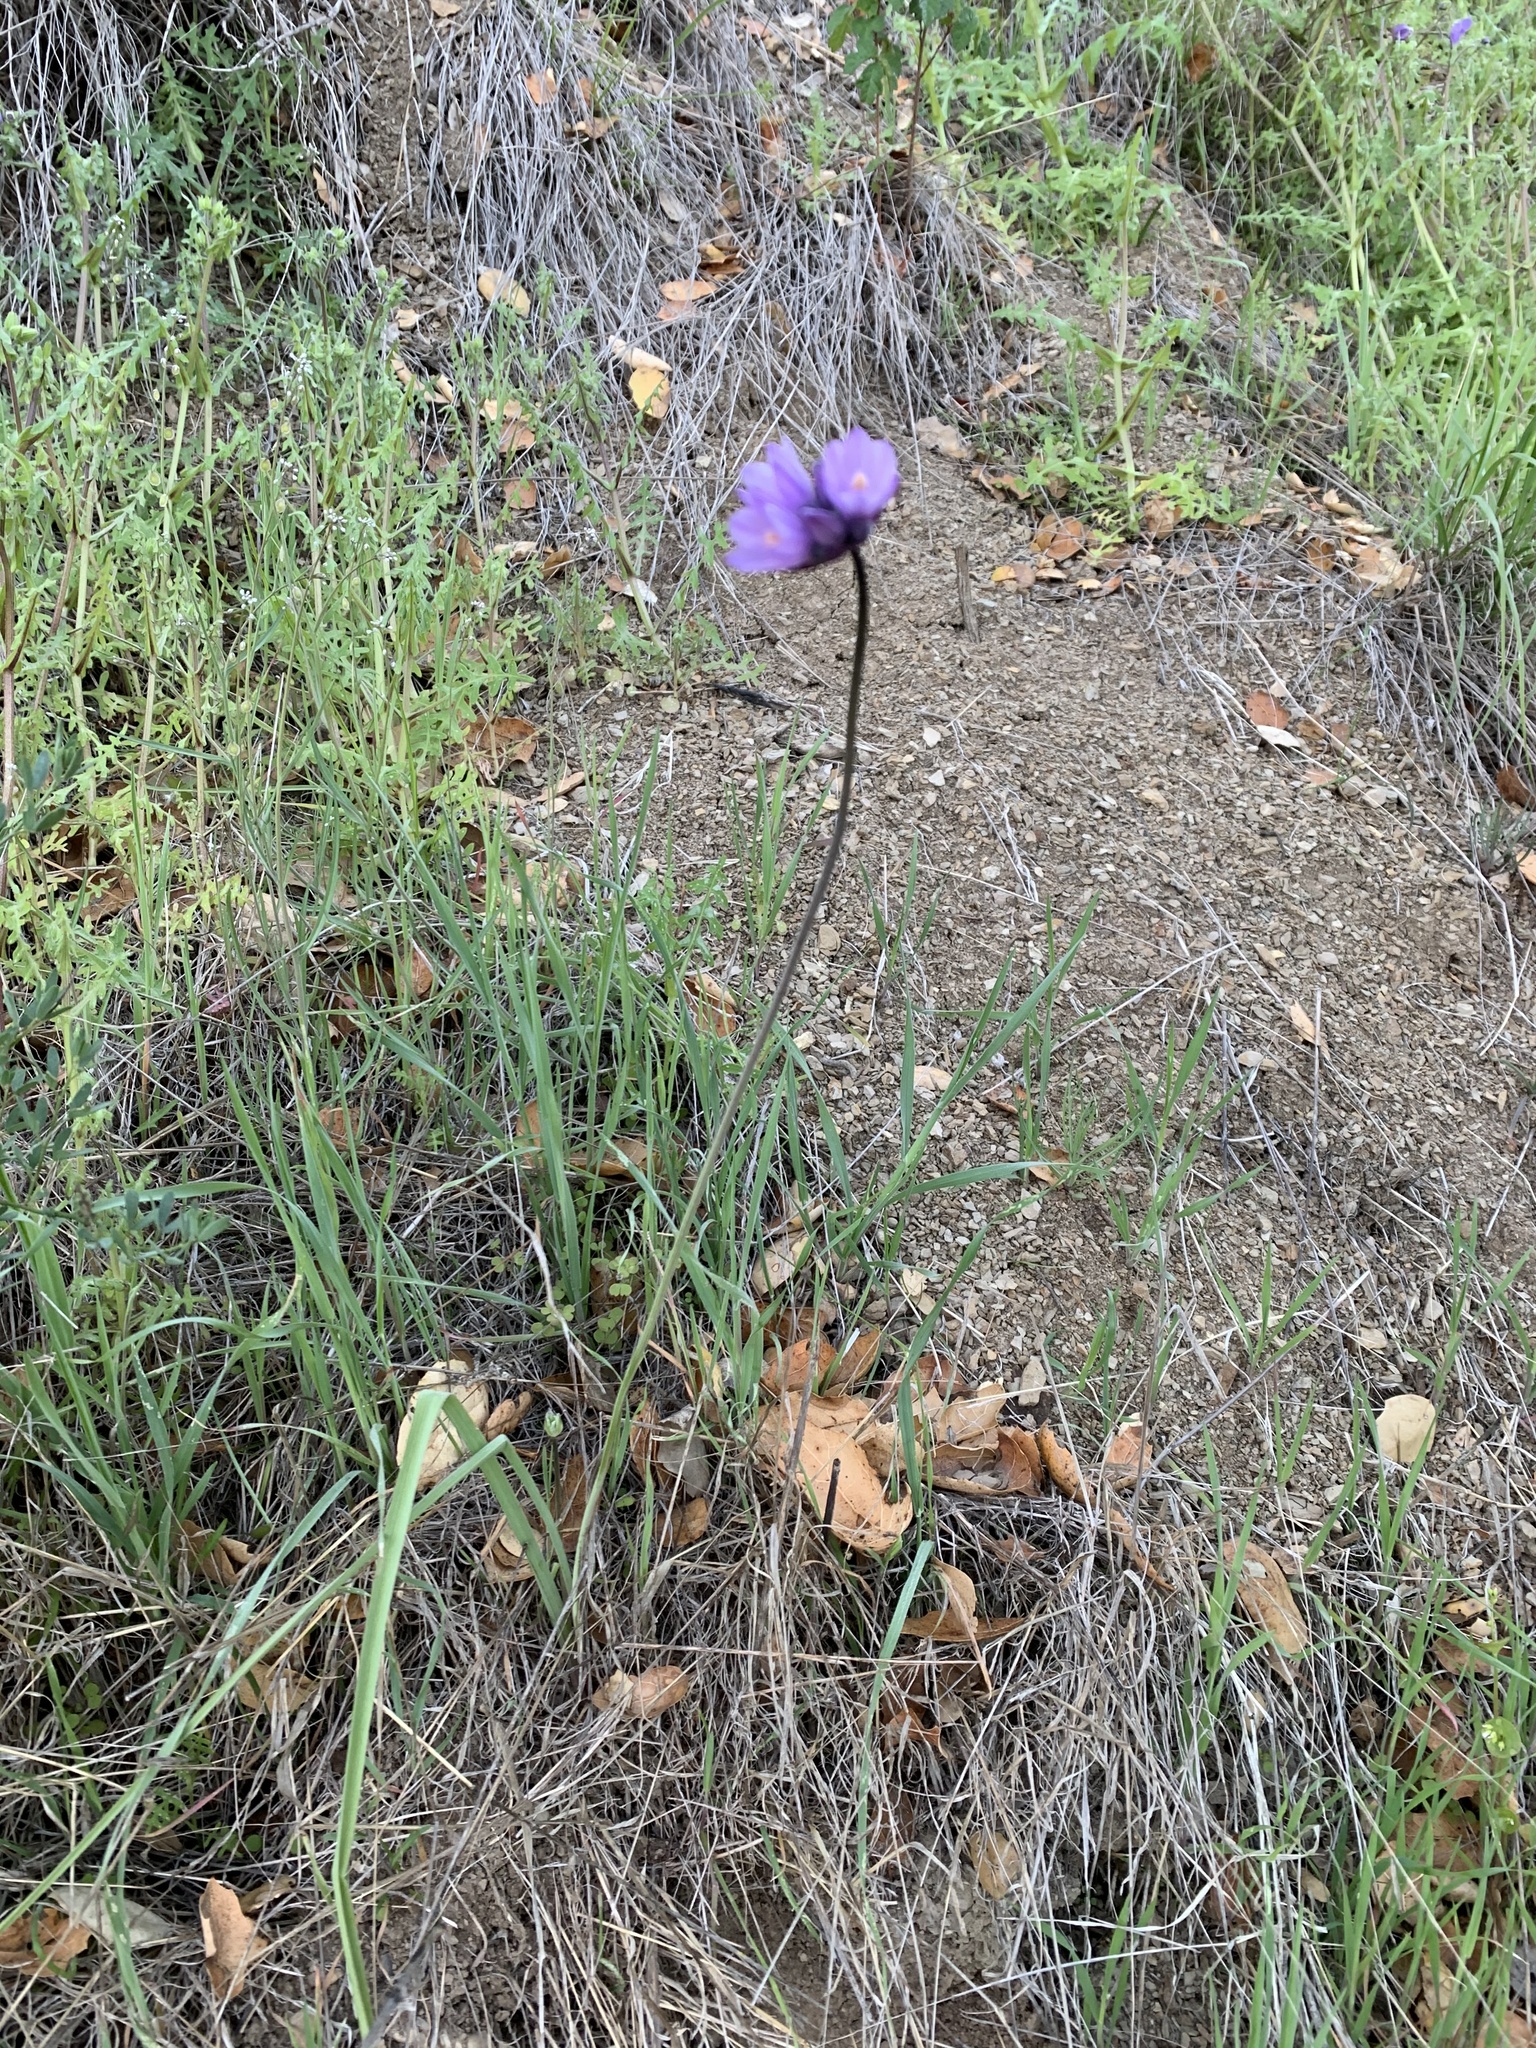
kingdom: Plantae
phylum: Tracheophyta
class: Liliopsida
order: Asparagales
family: Asparagaceae
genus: Dipterostemon
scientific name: Dipterostemon capitatus
